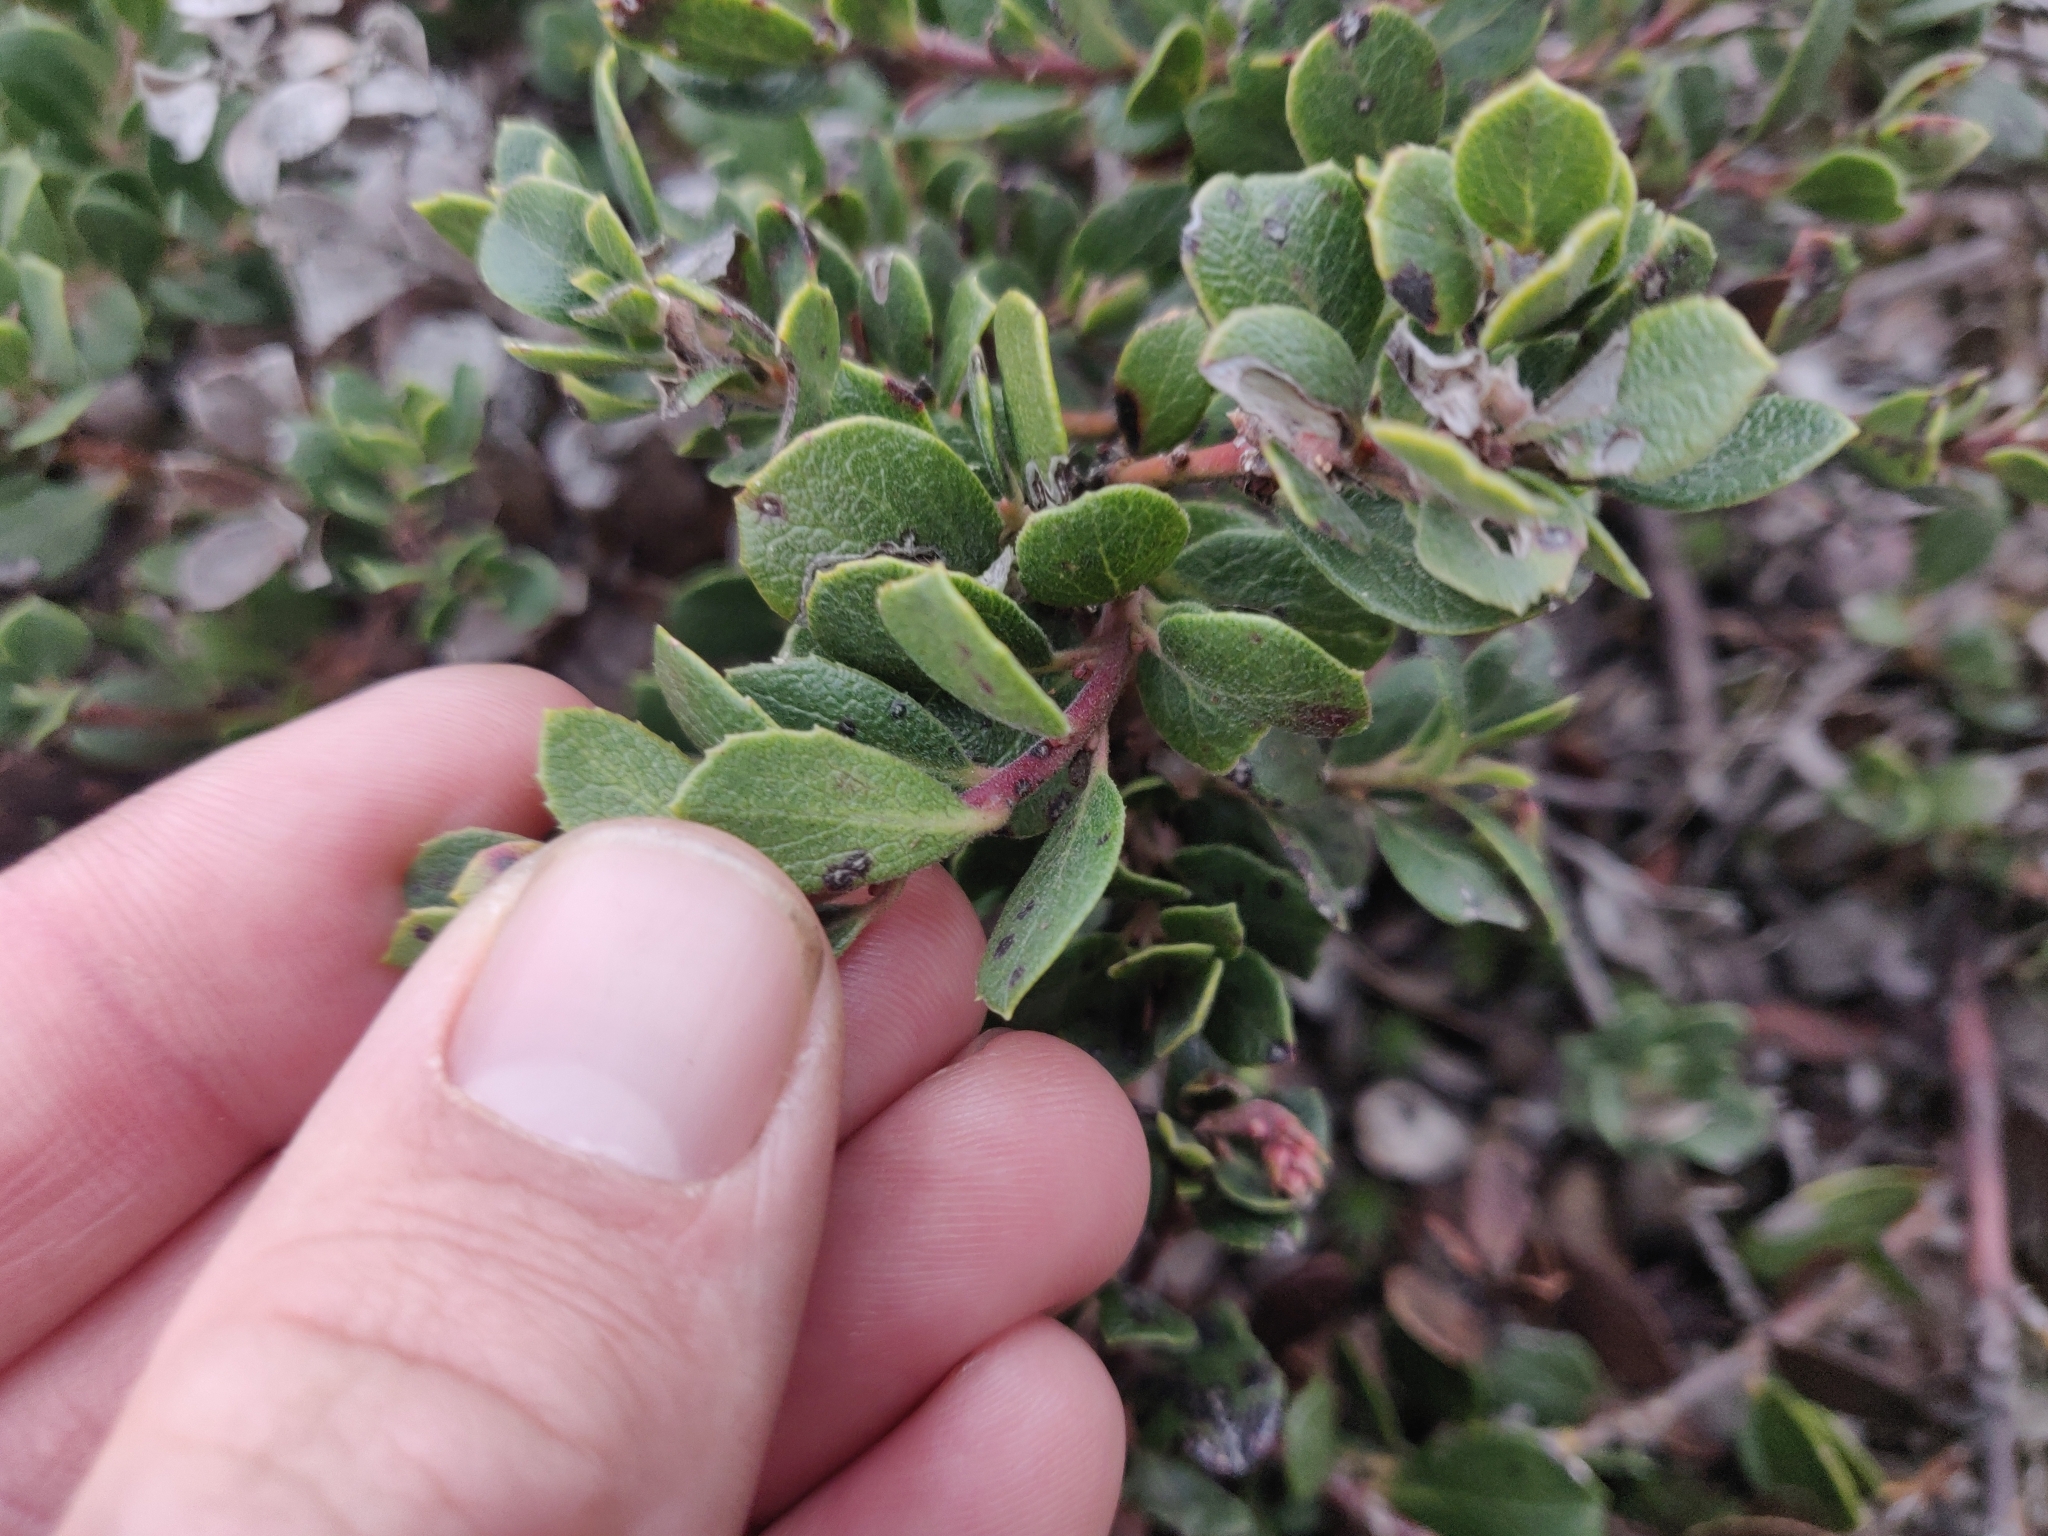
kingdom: Plantae
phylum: Tracheophyta
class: Magnoliopsida
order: Ericales
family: Ericaceae
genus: Arctostaphylos
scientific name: Arctostaphylos pacifica
